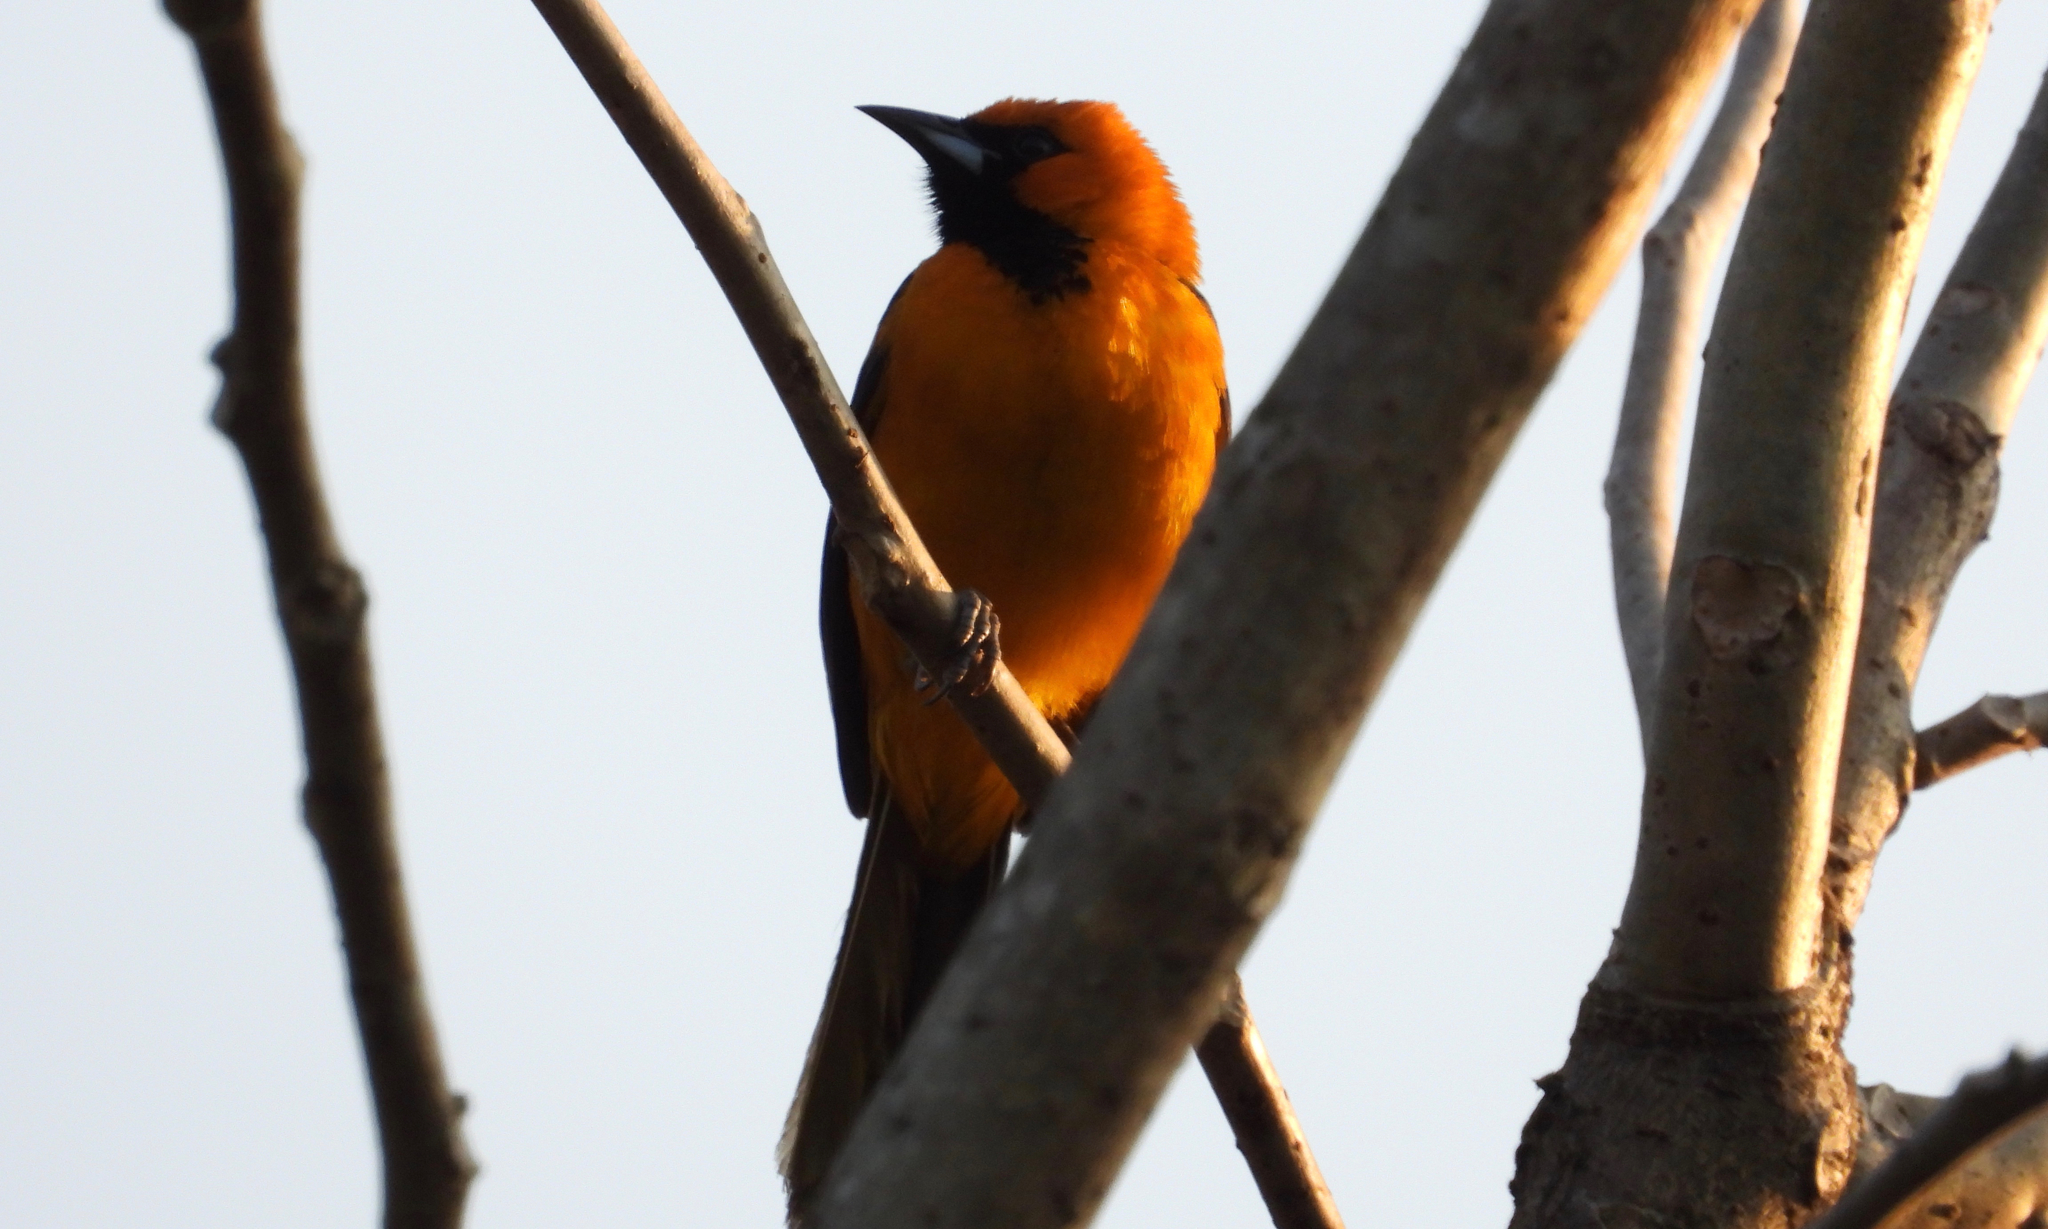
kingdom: Animalia
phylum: Chordata
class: Aves
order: Passeriformes
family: Icteridae
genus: Icterus
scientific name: Icterus pectoralis
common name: Spot-breasted oriole
